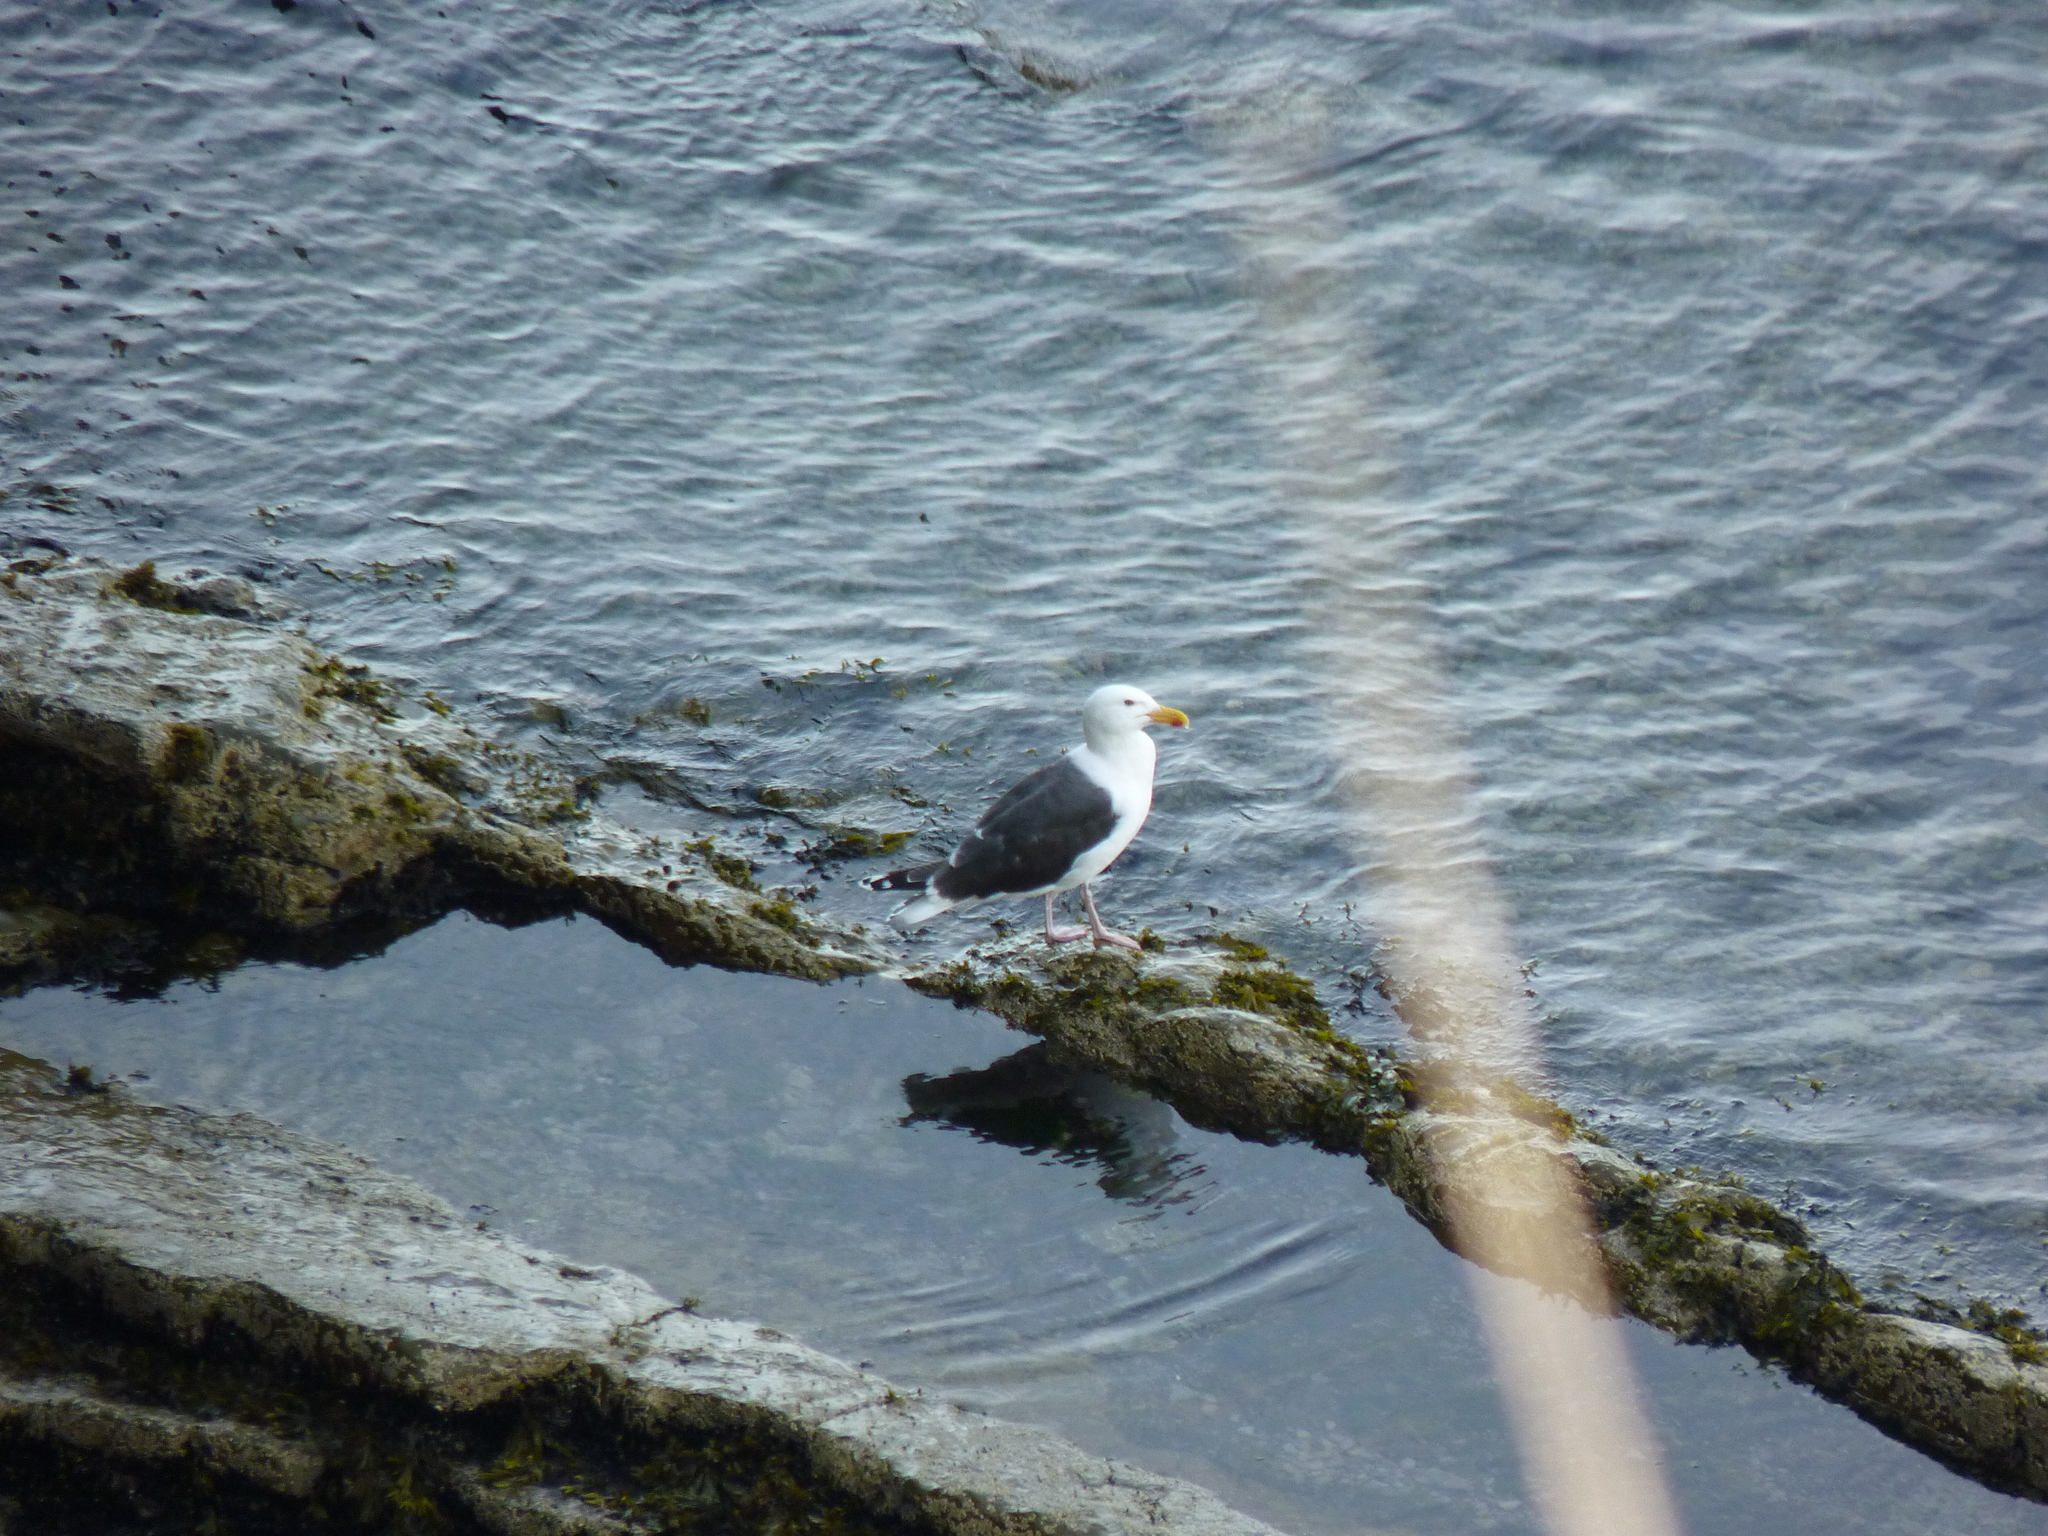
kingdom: Animalia
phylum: Chordata
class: Aves
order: Charadriiformes
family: Laridae
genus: Larus
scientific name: Larus marinus
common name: Great black-backed gull
